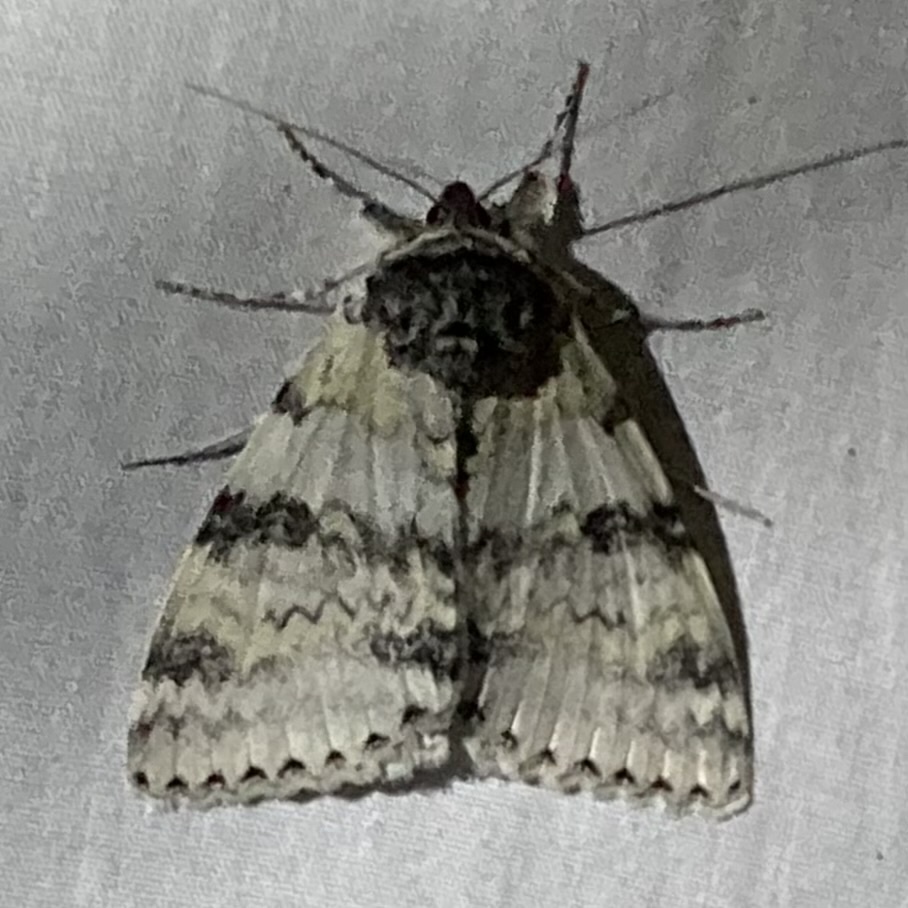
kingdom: Animalia
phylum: Arthropoda
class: Insecta
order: Lepidoptera
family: Erebidae
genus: Catocala
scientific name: Catocala relicta
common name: White underwing
